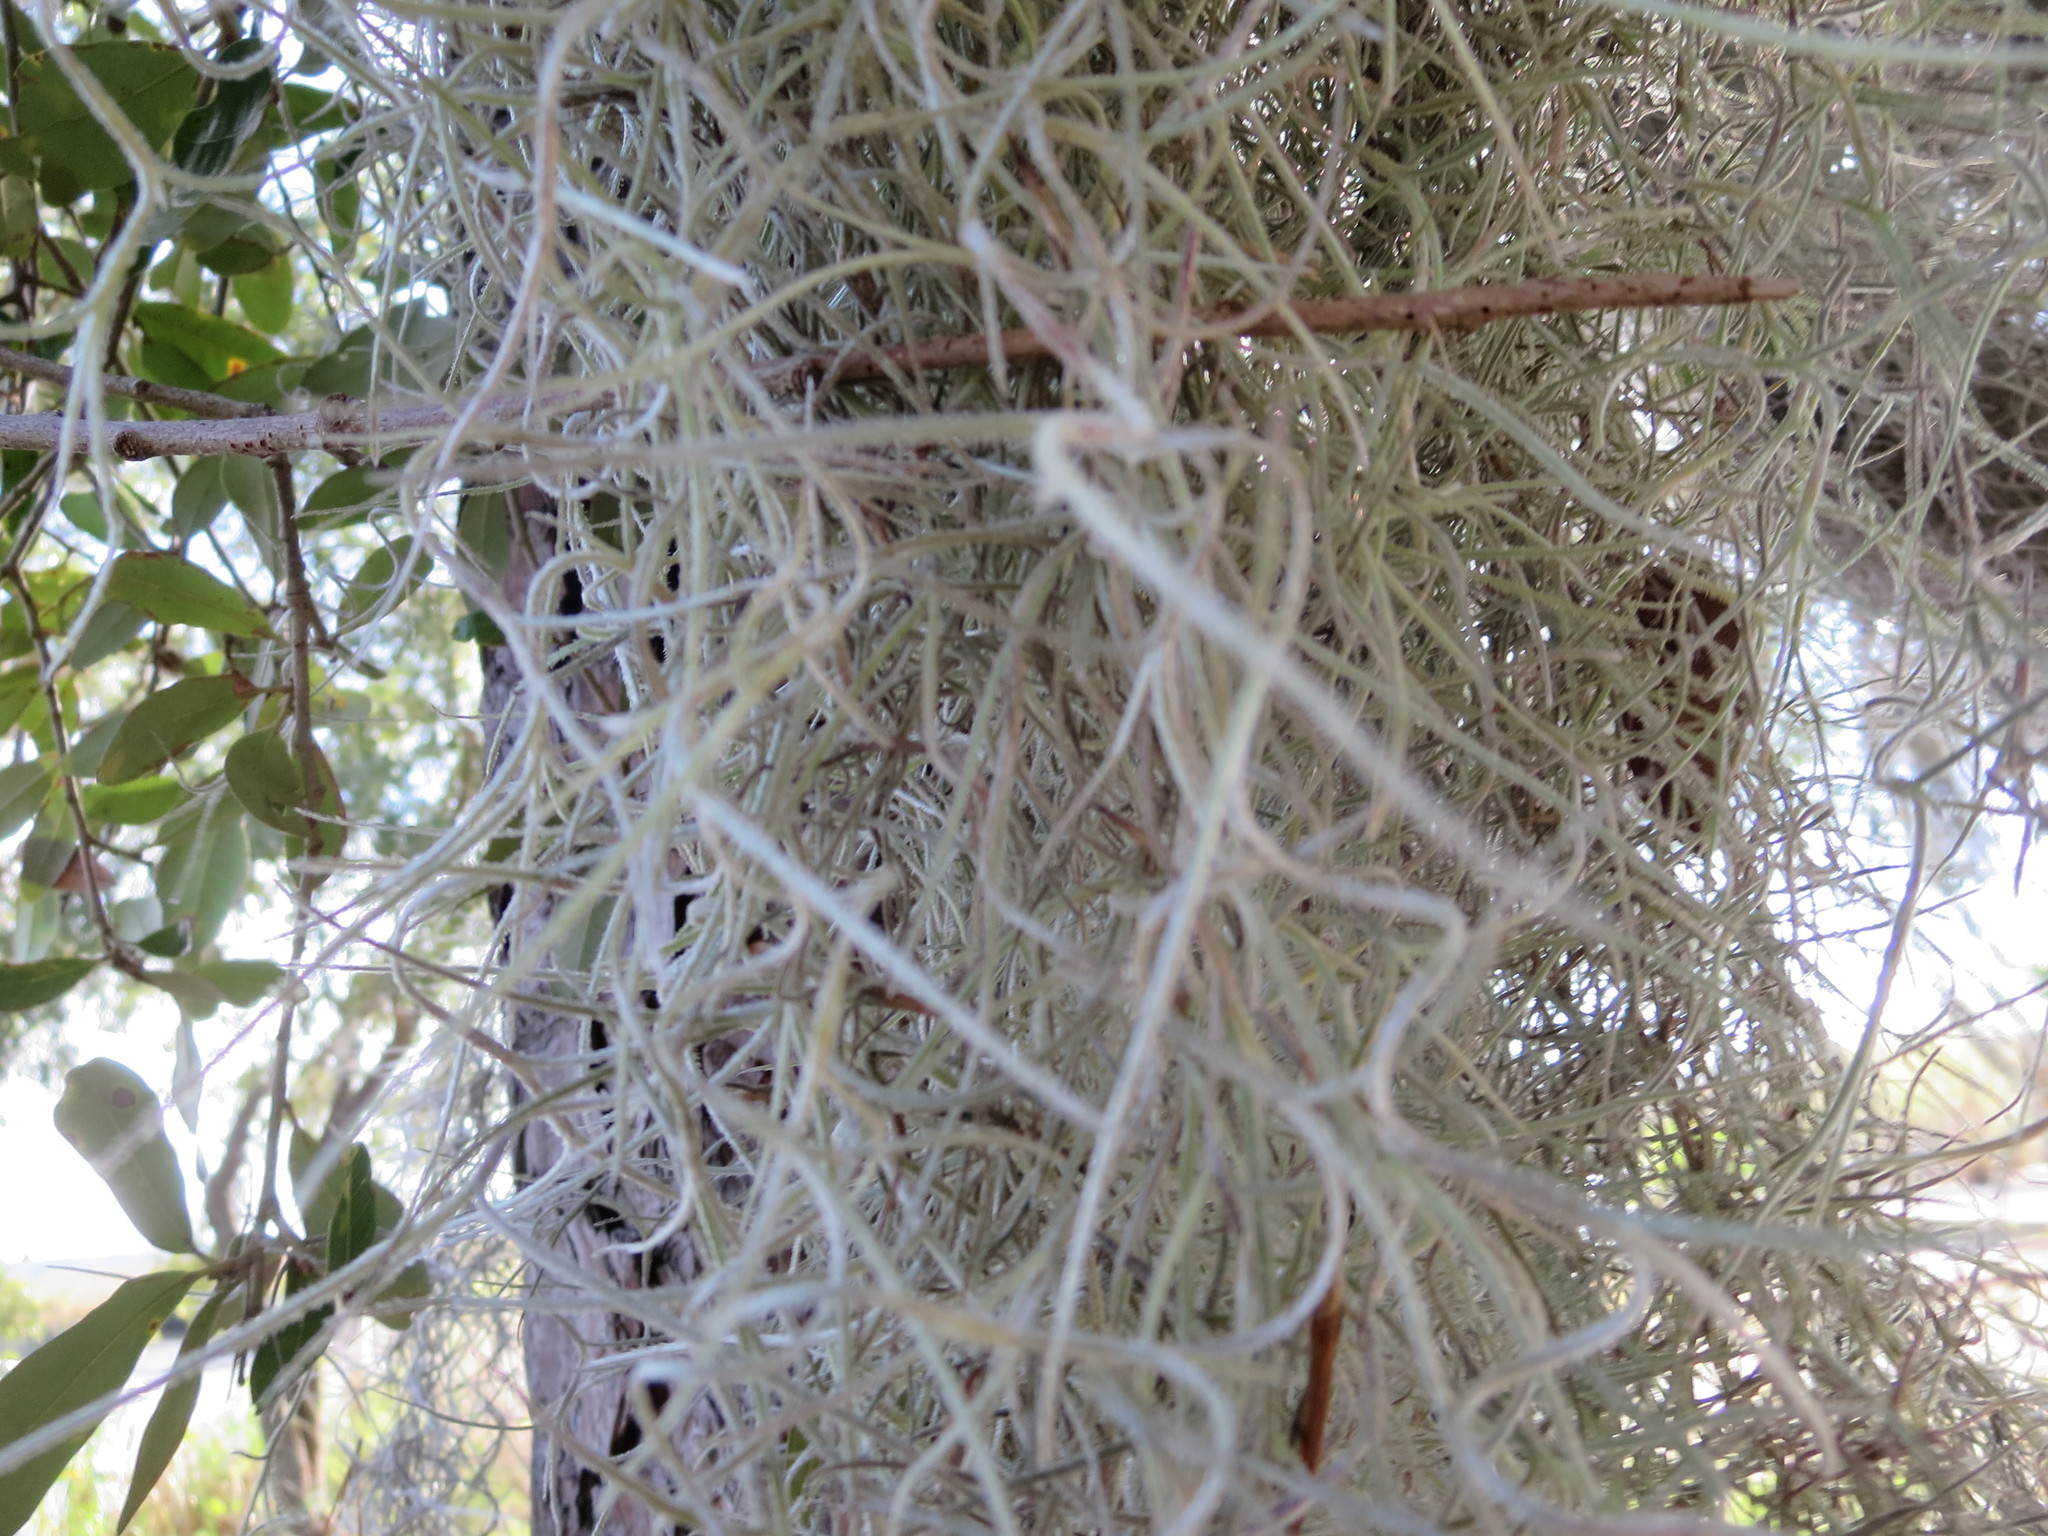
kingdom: Plantae
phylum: Tracheophyta
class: Liliopsida
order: Poales
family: Bromeliaceae
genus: Tillandsia
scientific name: Tillandsia usneoides
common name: Spanish moss
